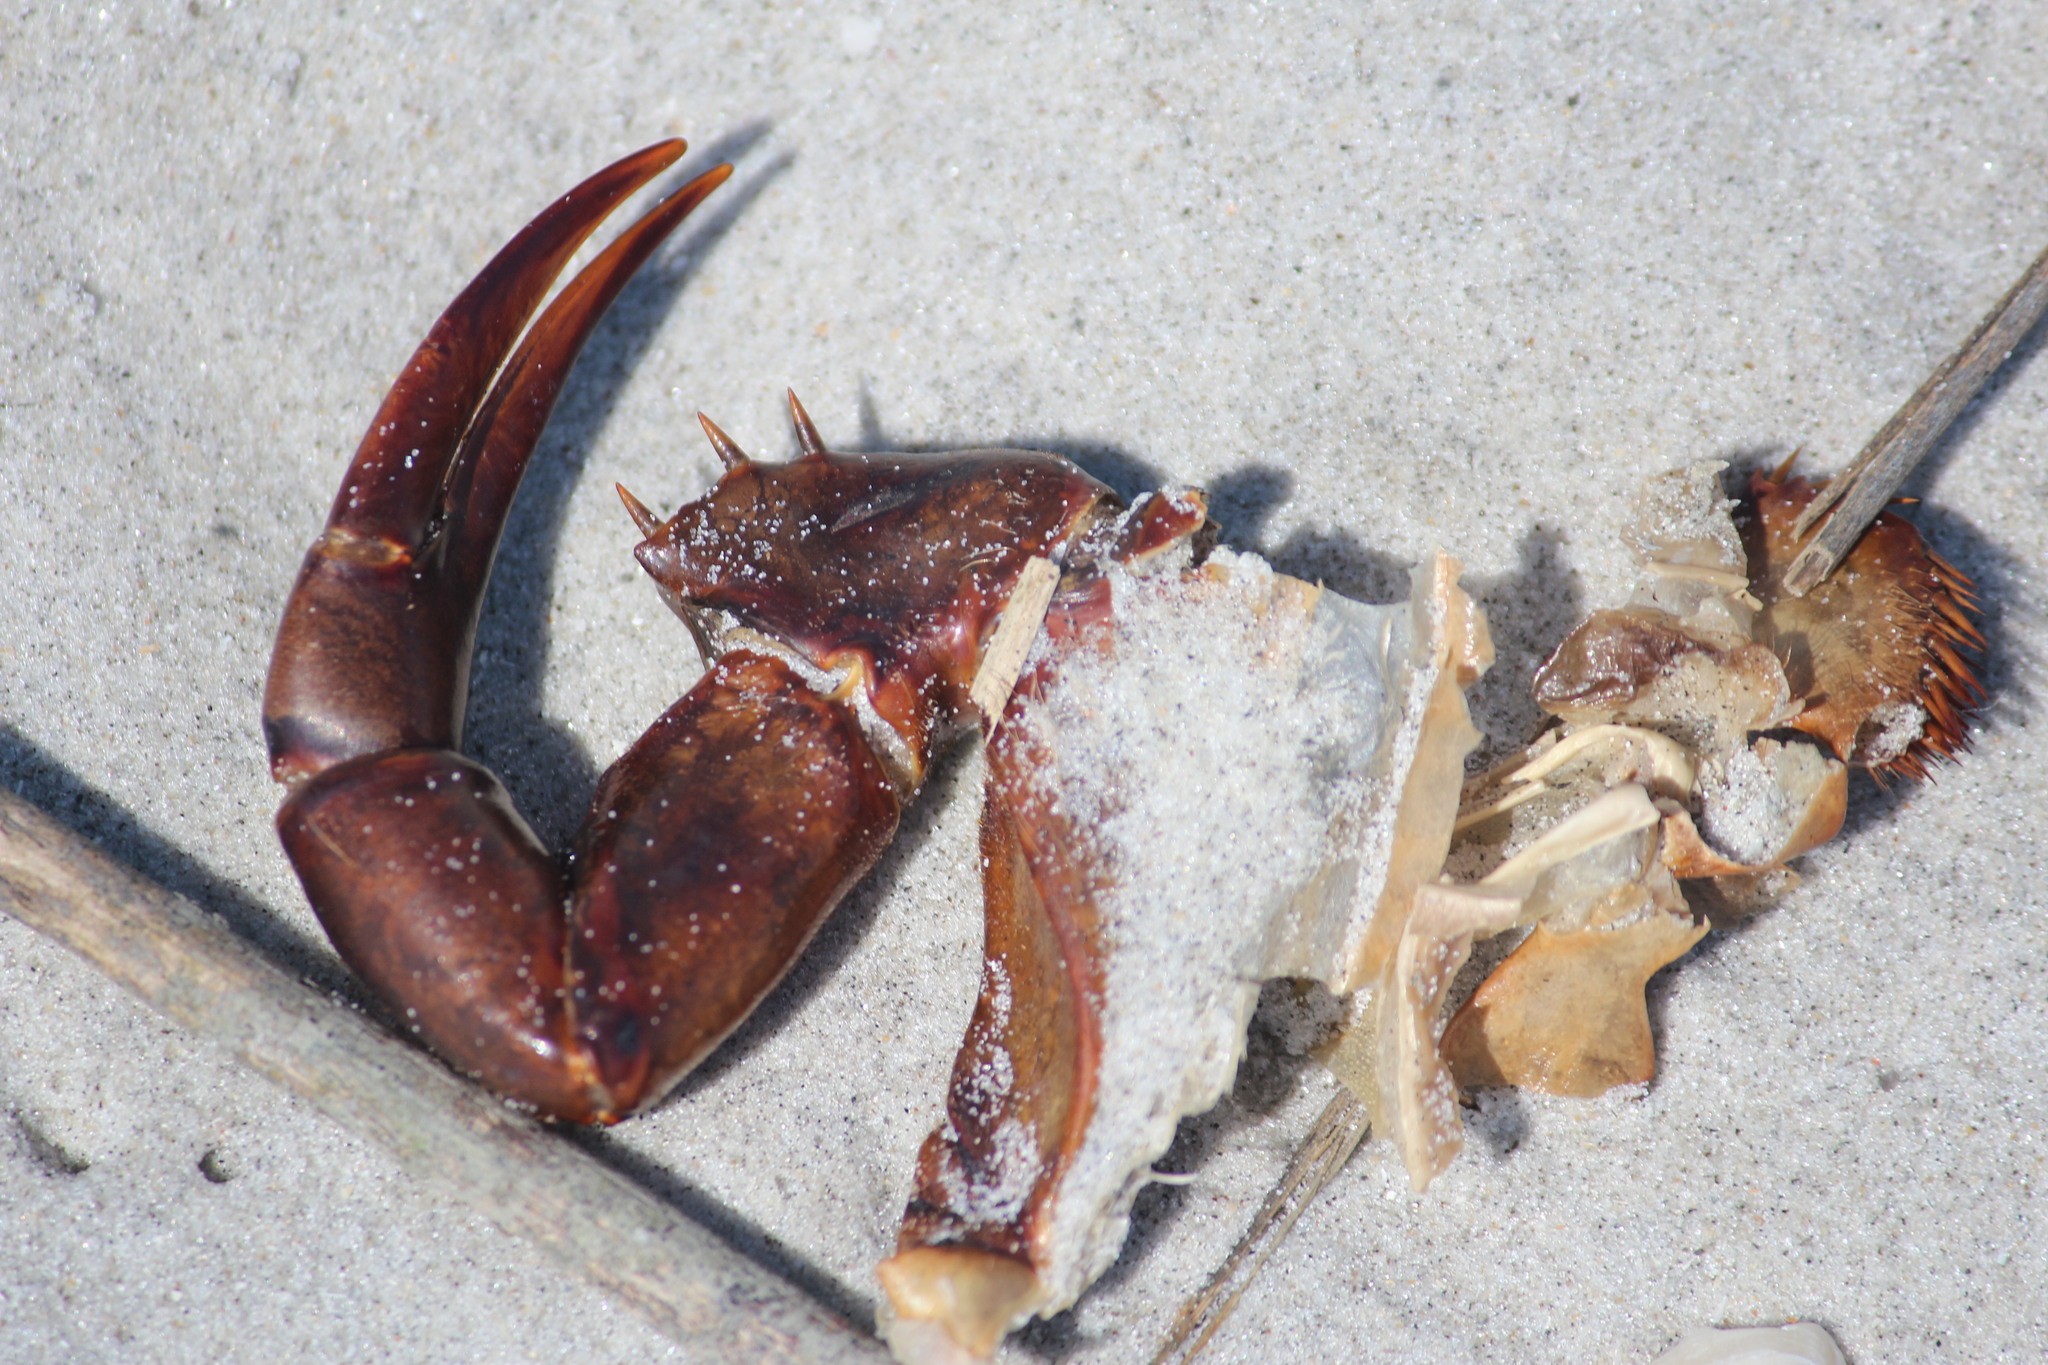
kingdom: Animalia
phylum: Arthropoda
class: Merostomata
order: Xiphosurida
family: Limulidae
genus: Limulus
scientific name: Limulus polyphemus
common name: Horseshoe crab
